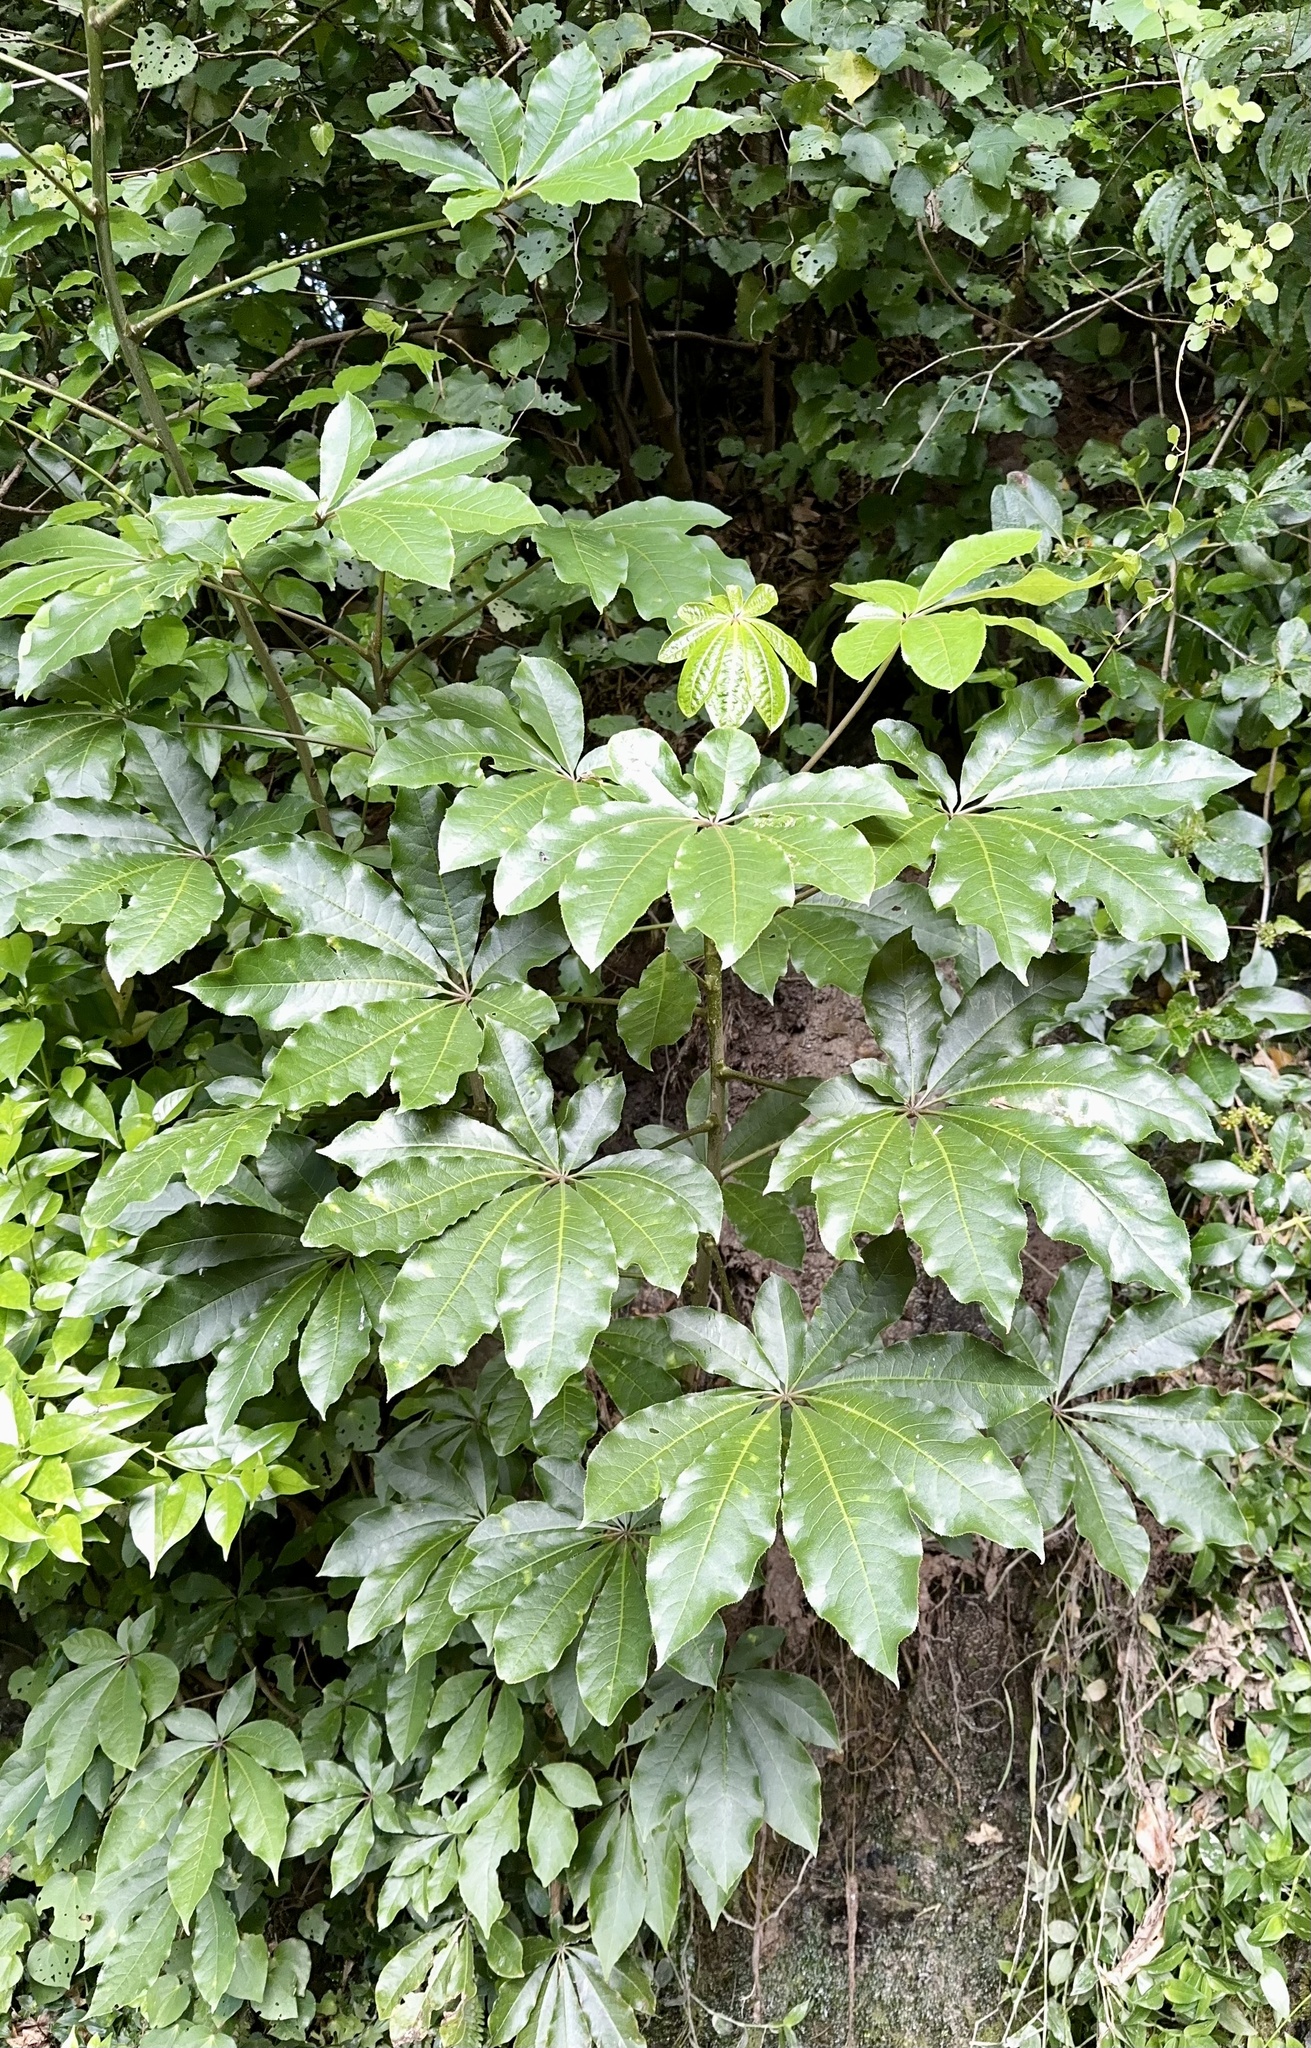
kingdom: Plantae
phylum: Tracheophyta
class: Magnoliopsida
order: Apiales
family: Araliaceae
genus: Schefflera
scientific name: Schefflera digitata
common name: Pate
